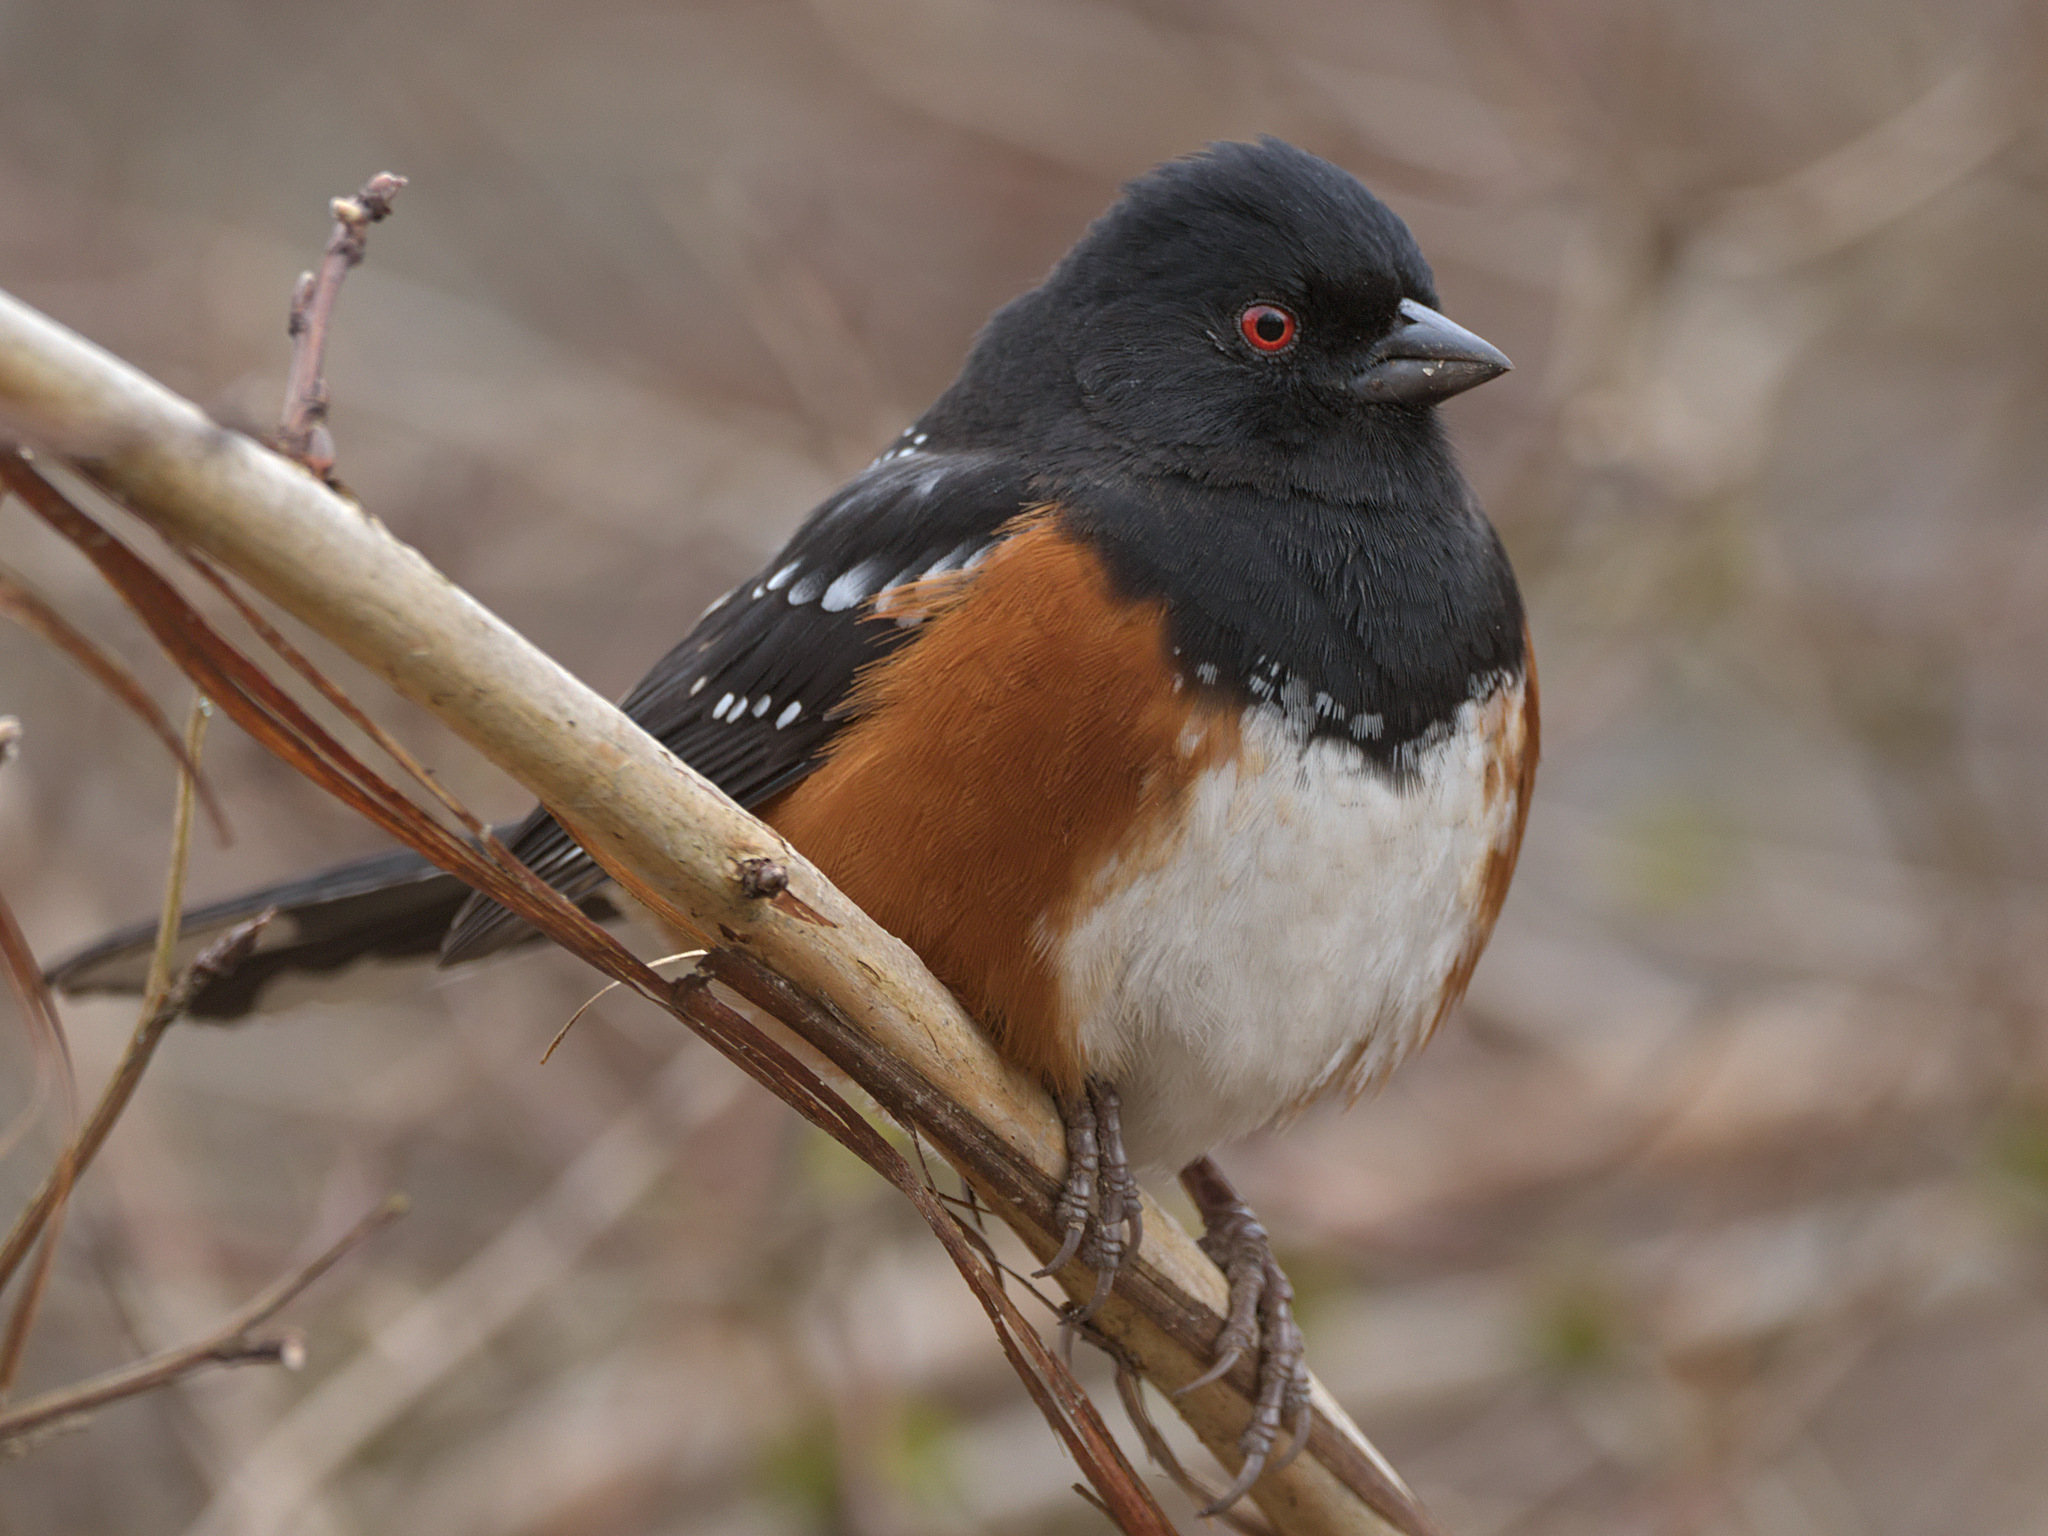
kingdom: Animalia
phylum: Chordata
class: Aves
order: Passeriformes
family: Passerellidae
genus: Pipilo
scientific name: Pipilo maculatus
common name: Spotted towhee
